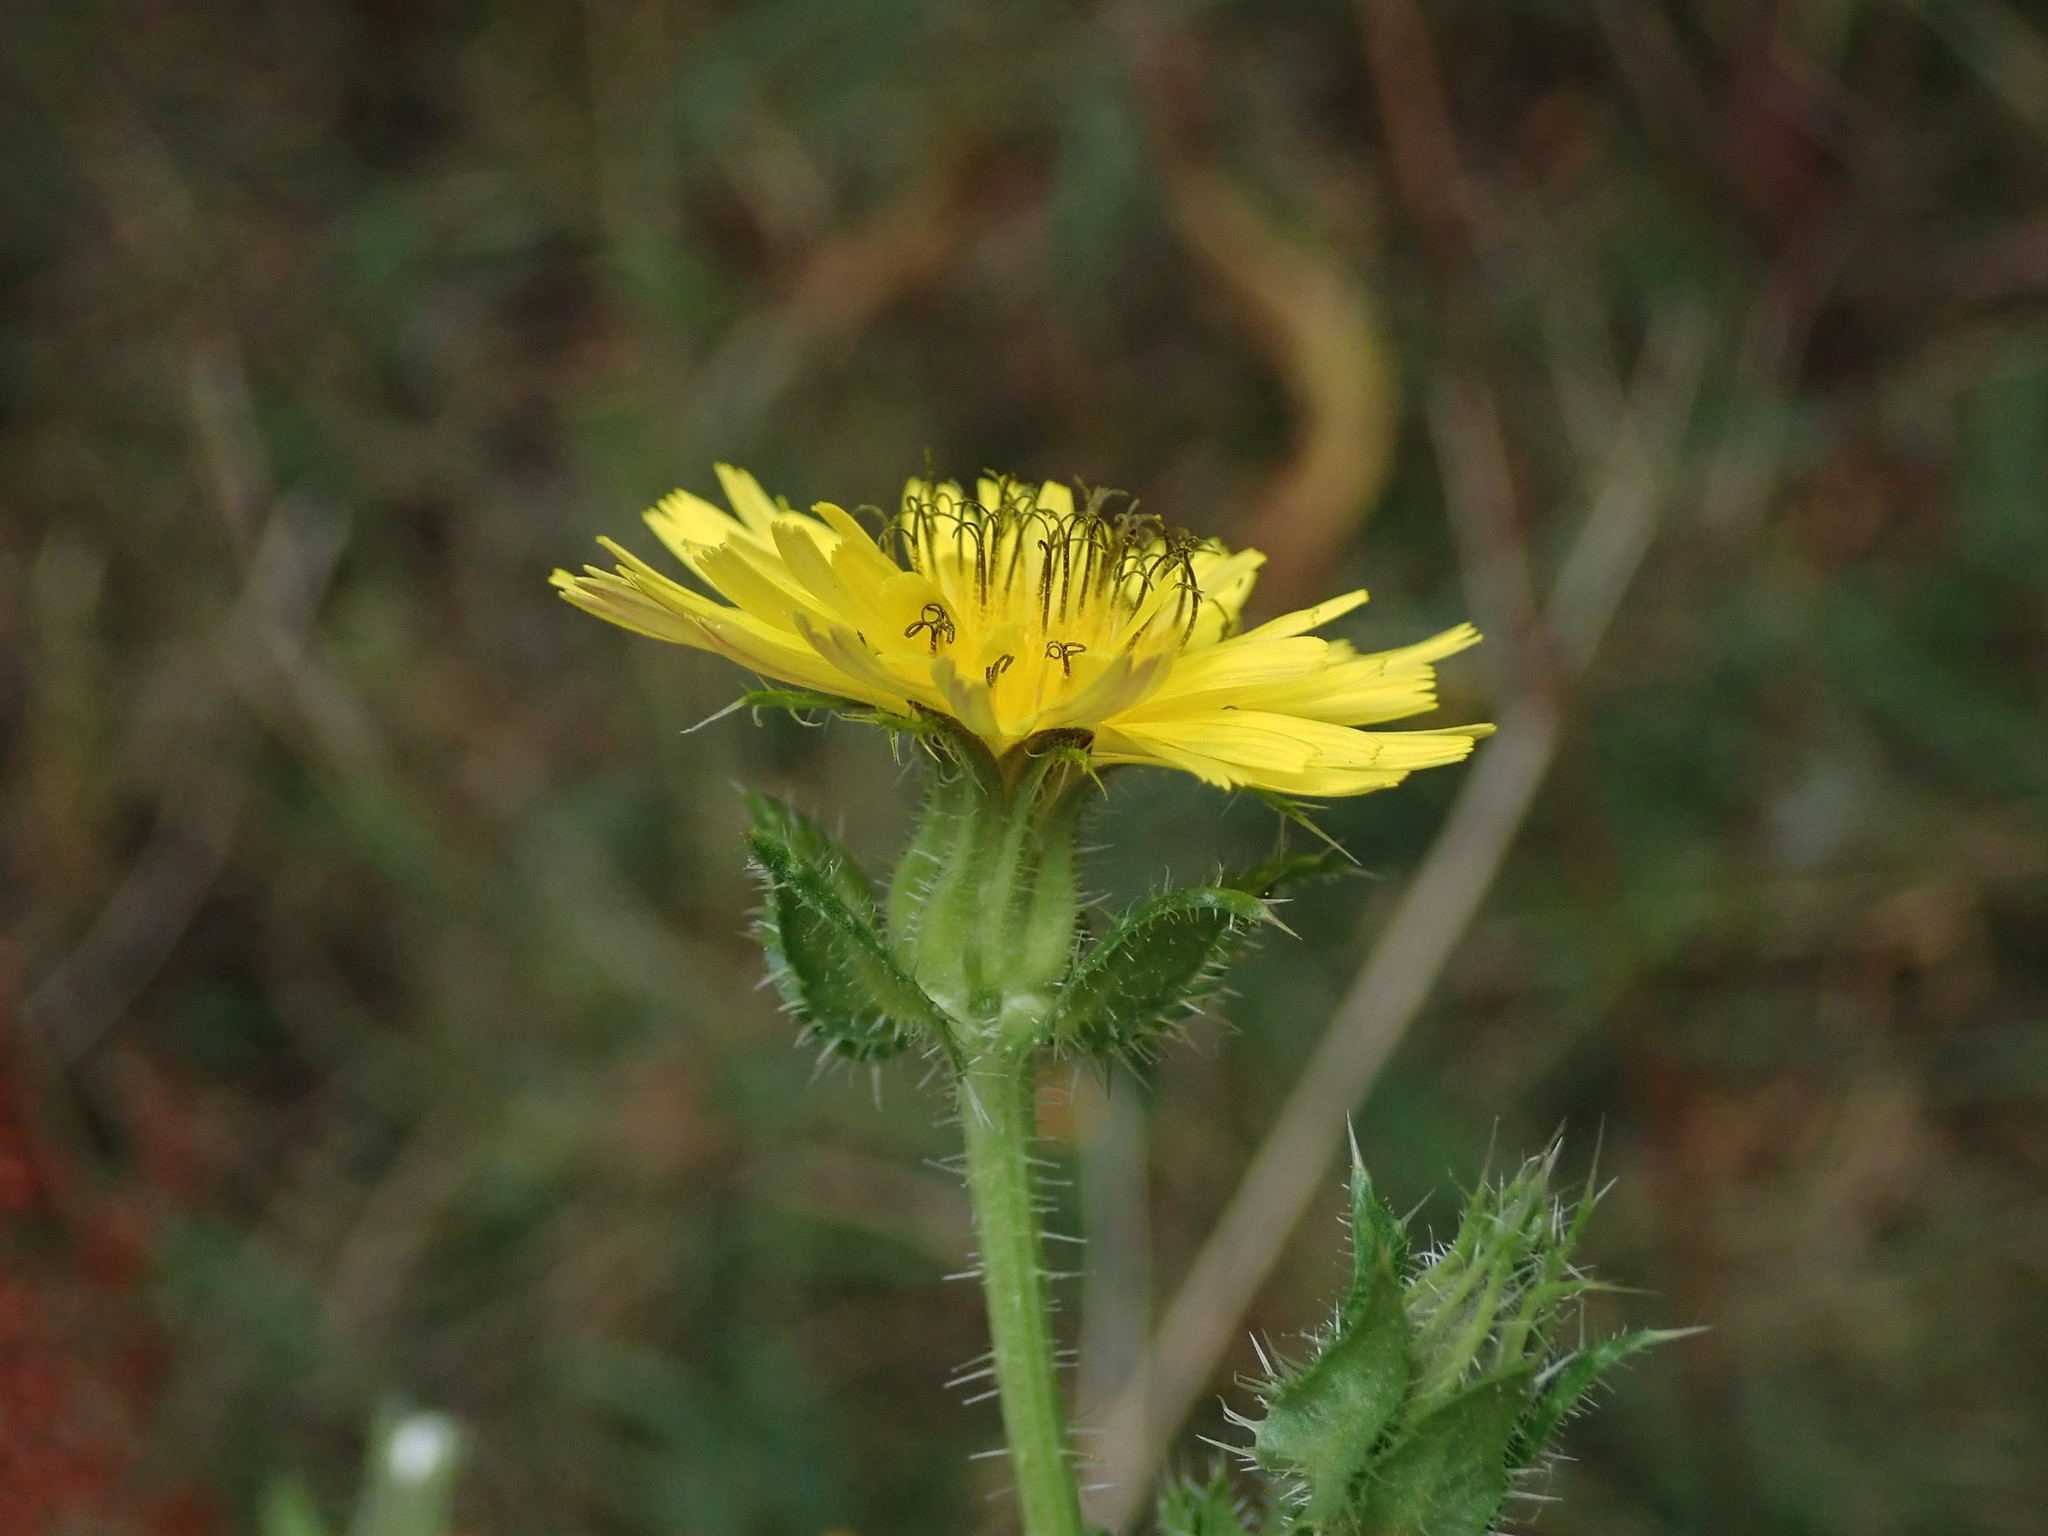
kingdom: Plantae
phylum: Tracheophyta
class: Magnoliopsida
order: Asterales
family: Asteraceae
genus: Helminthotheca
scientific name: Helminthotheca echioides
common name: Ox-tongue
